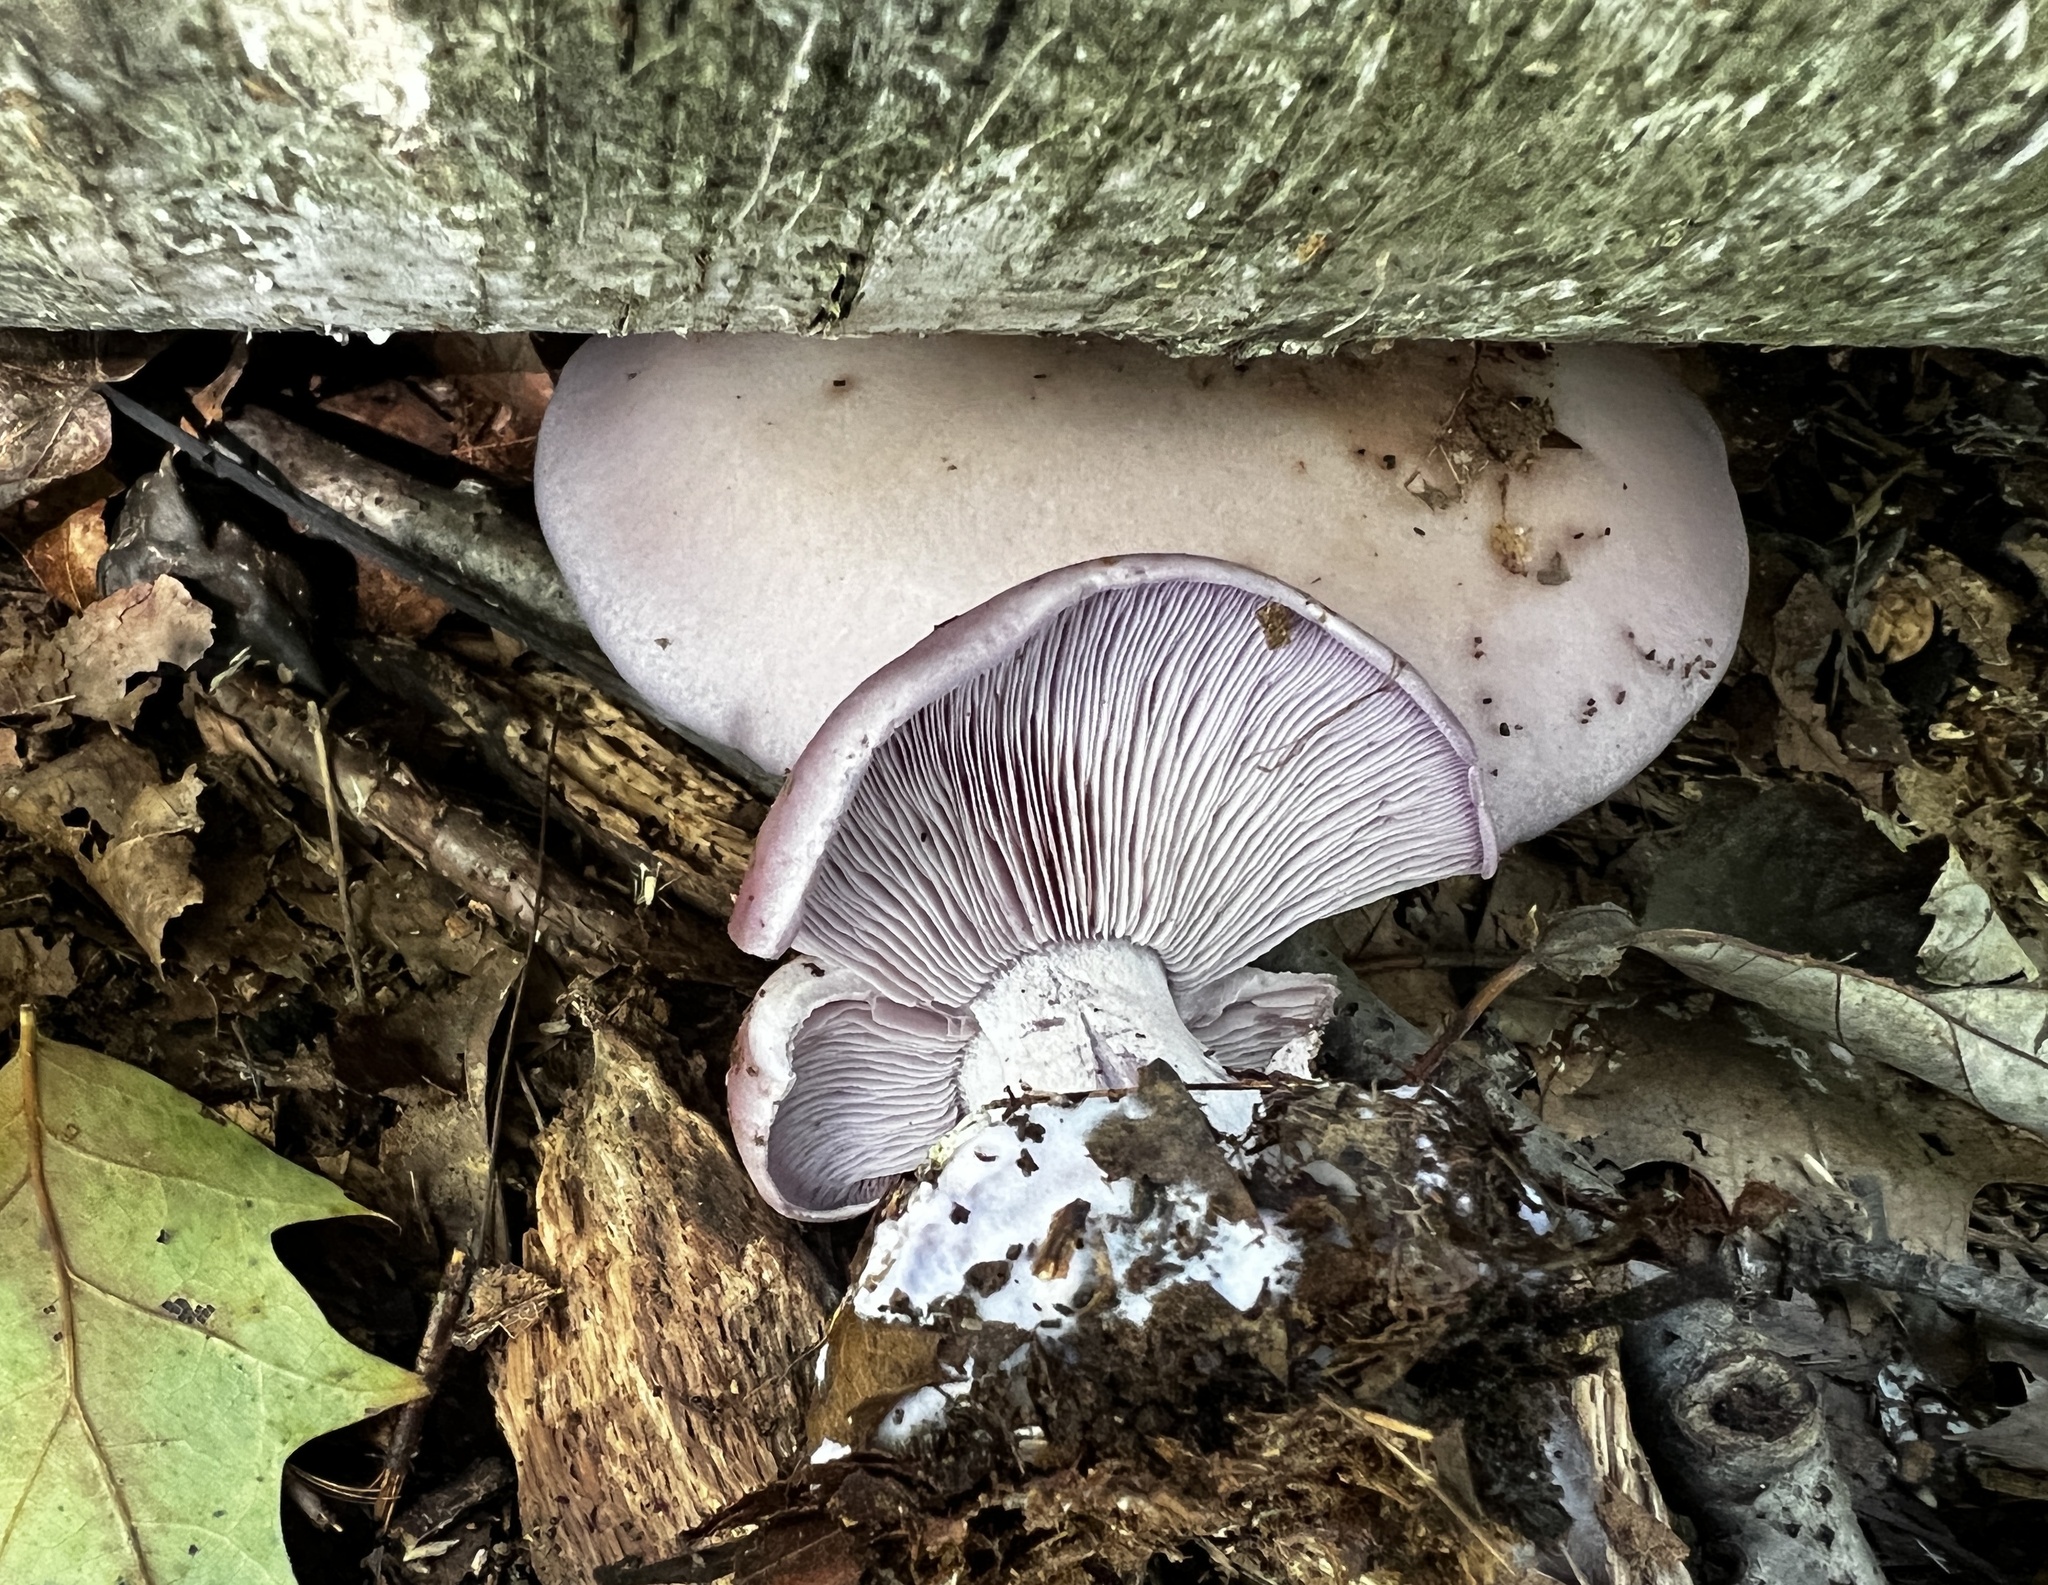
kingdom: Fungi
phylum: Basidiomycota
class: Agaricomycetes
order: Agaricales
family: Tricholomataceae
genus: Collybia
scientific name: Collybia
